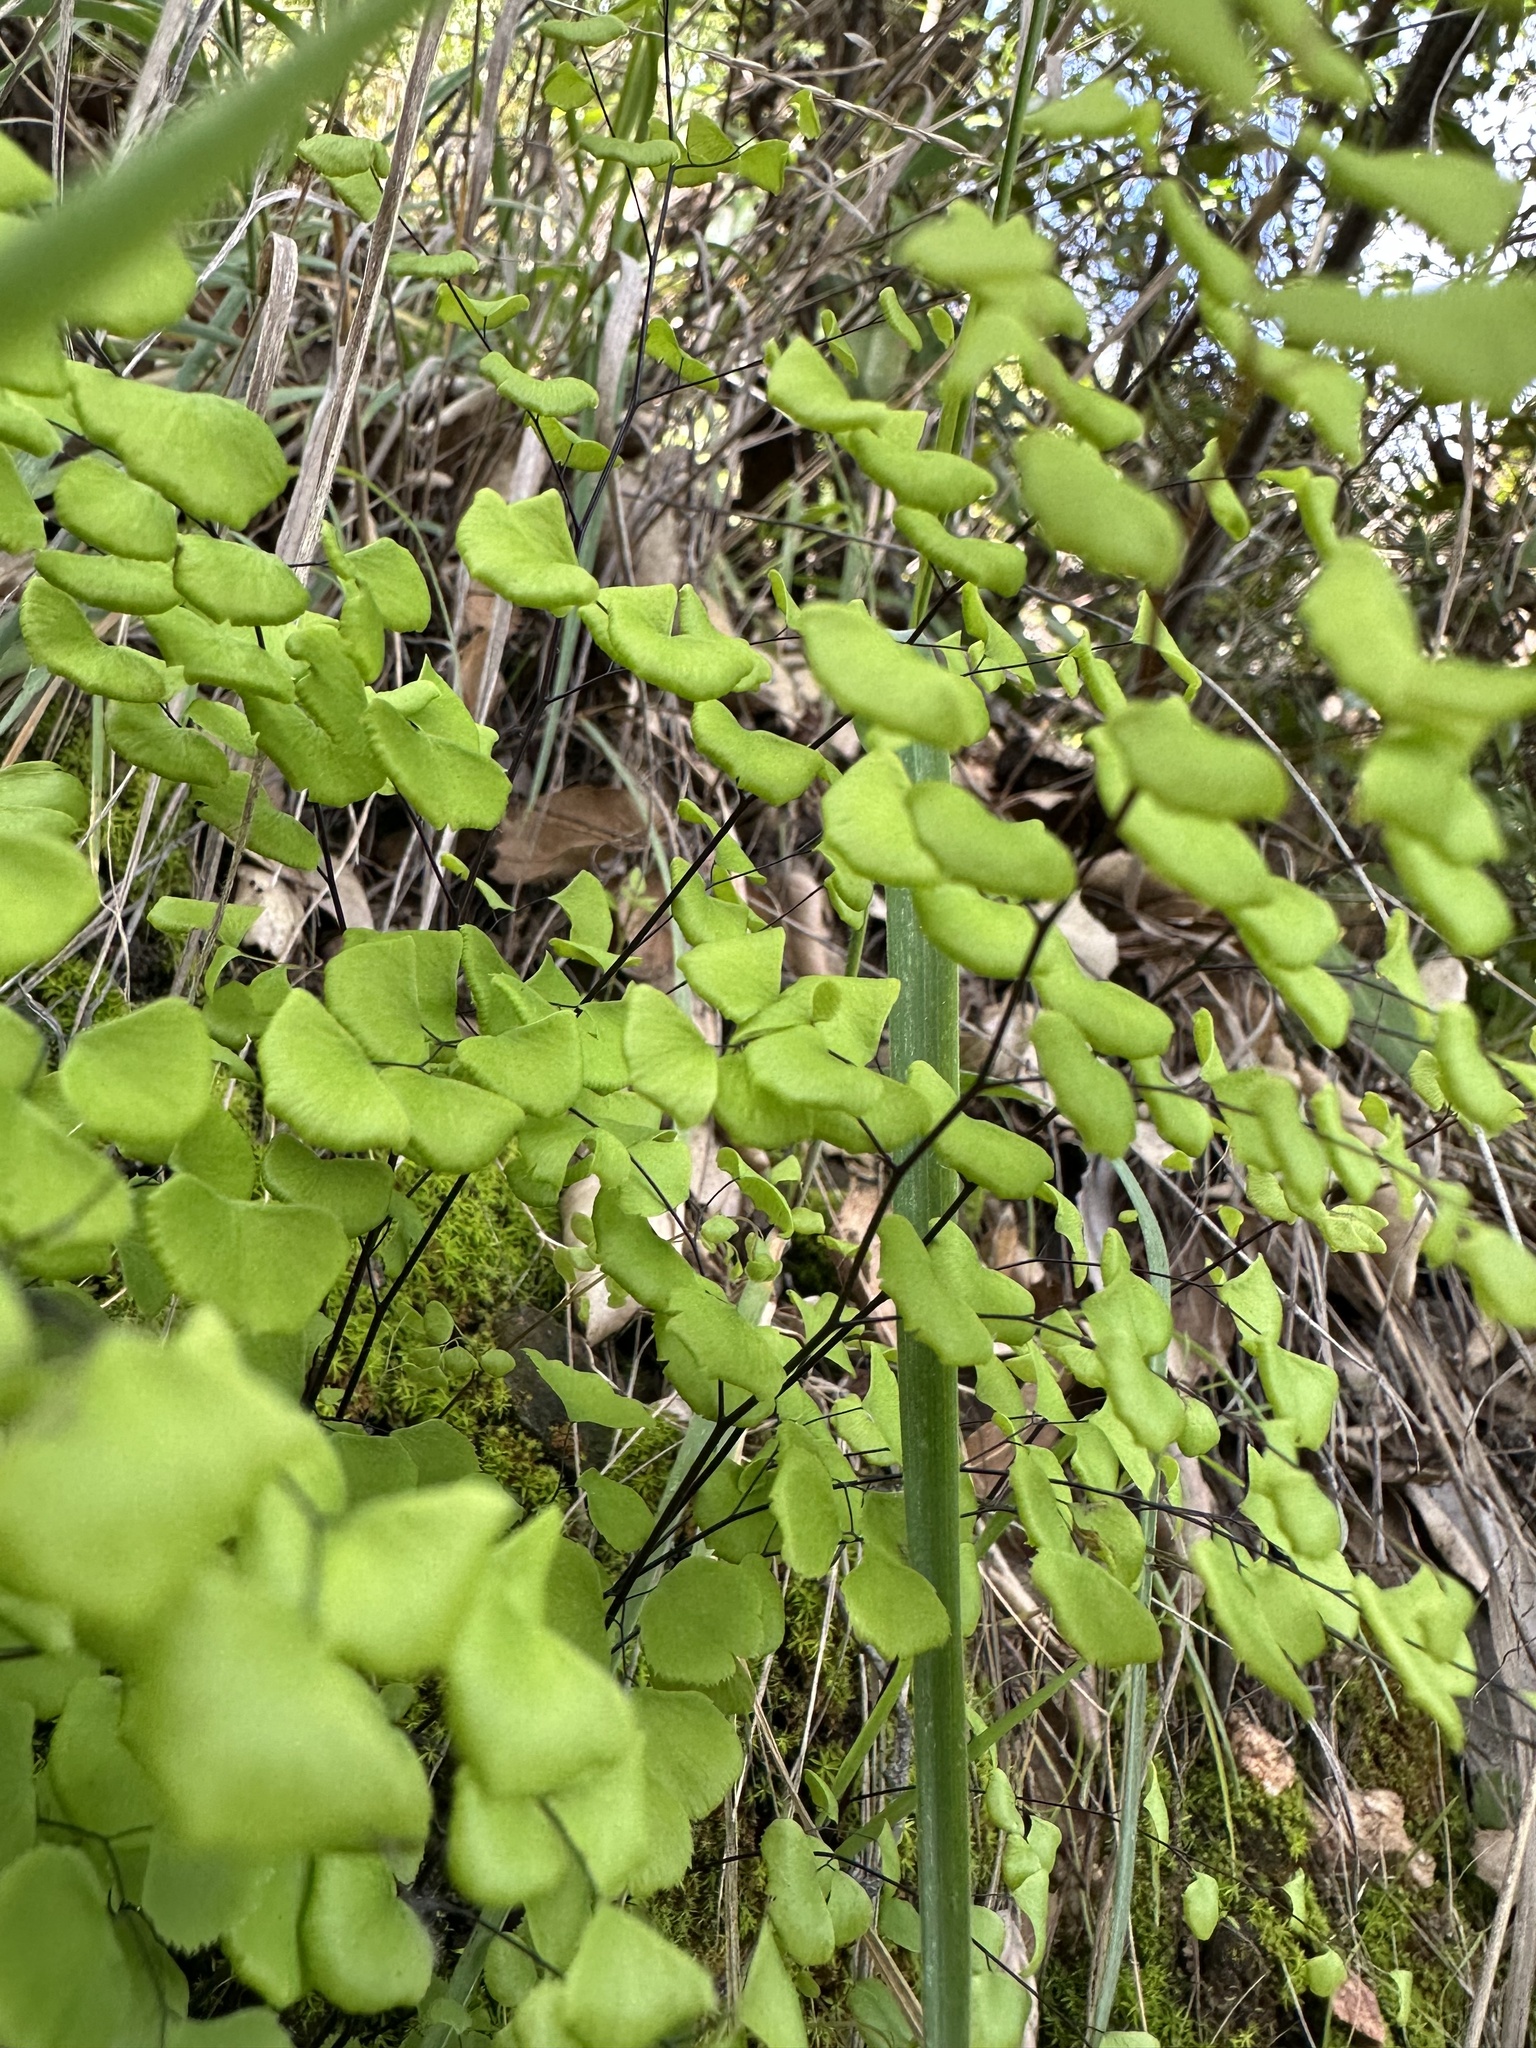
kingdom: Plantae
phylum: Tracheophyta
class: Polypodiopsida
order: Polypodiales
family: Pteridaceae
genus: Adiantum
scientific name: Adiantum jordanii
